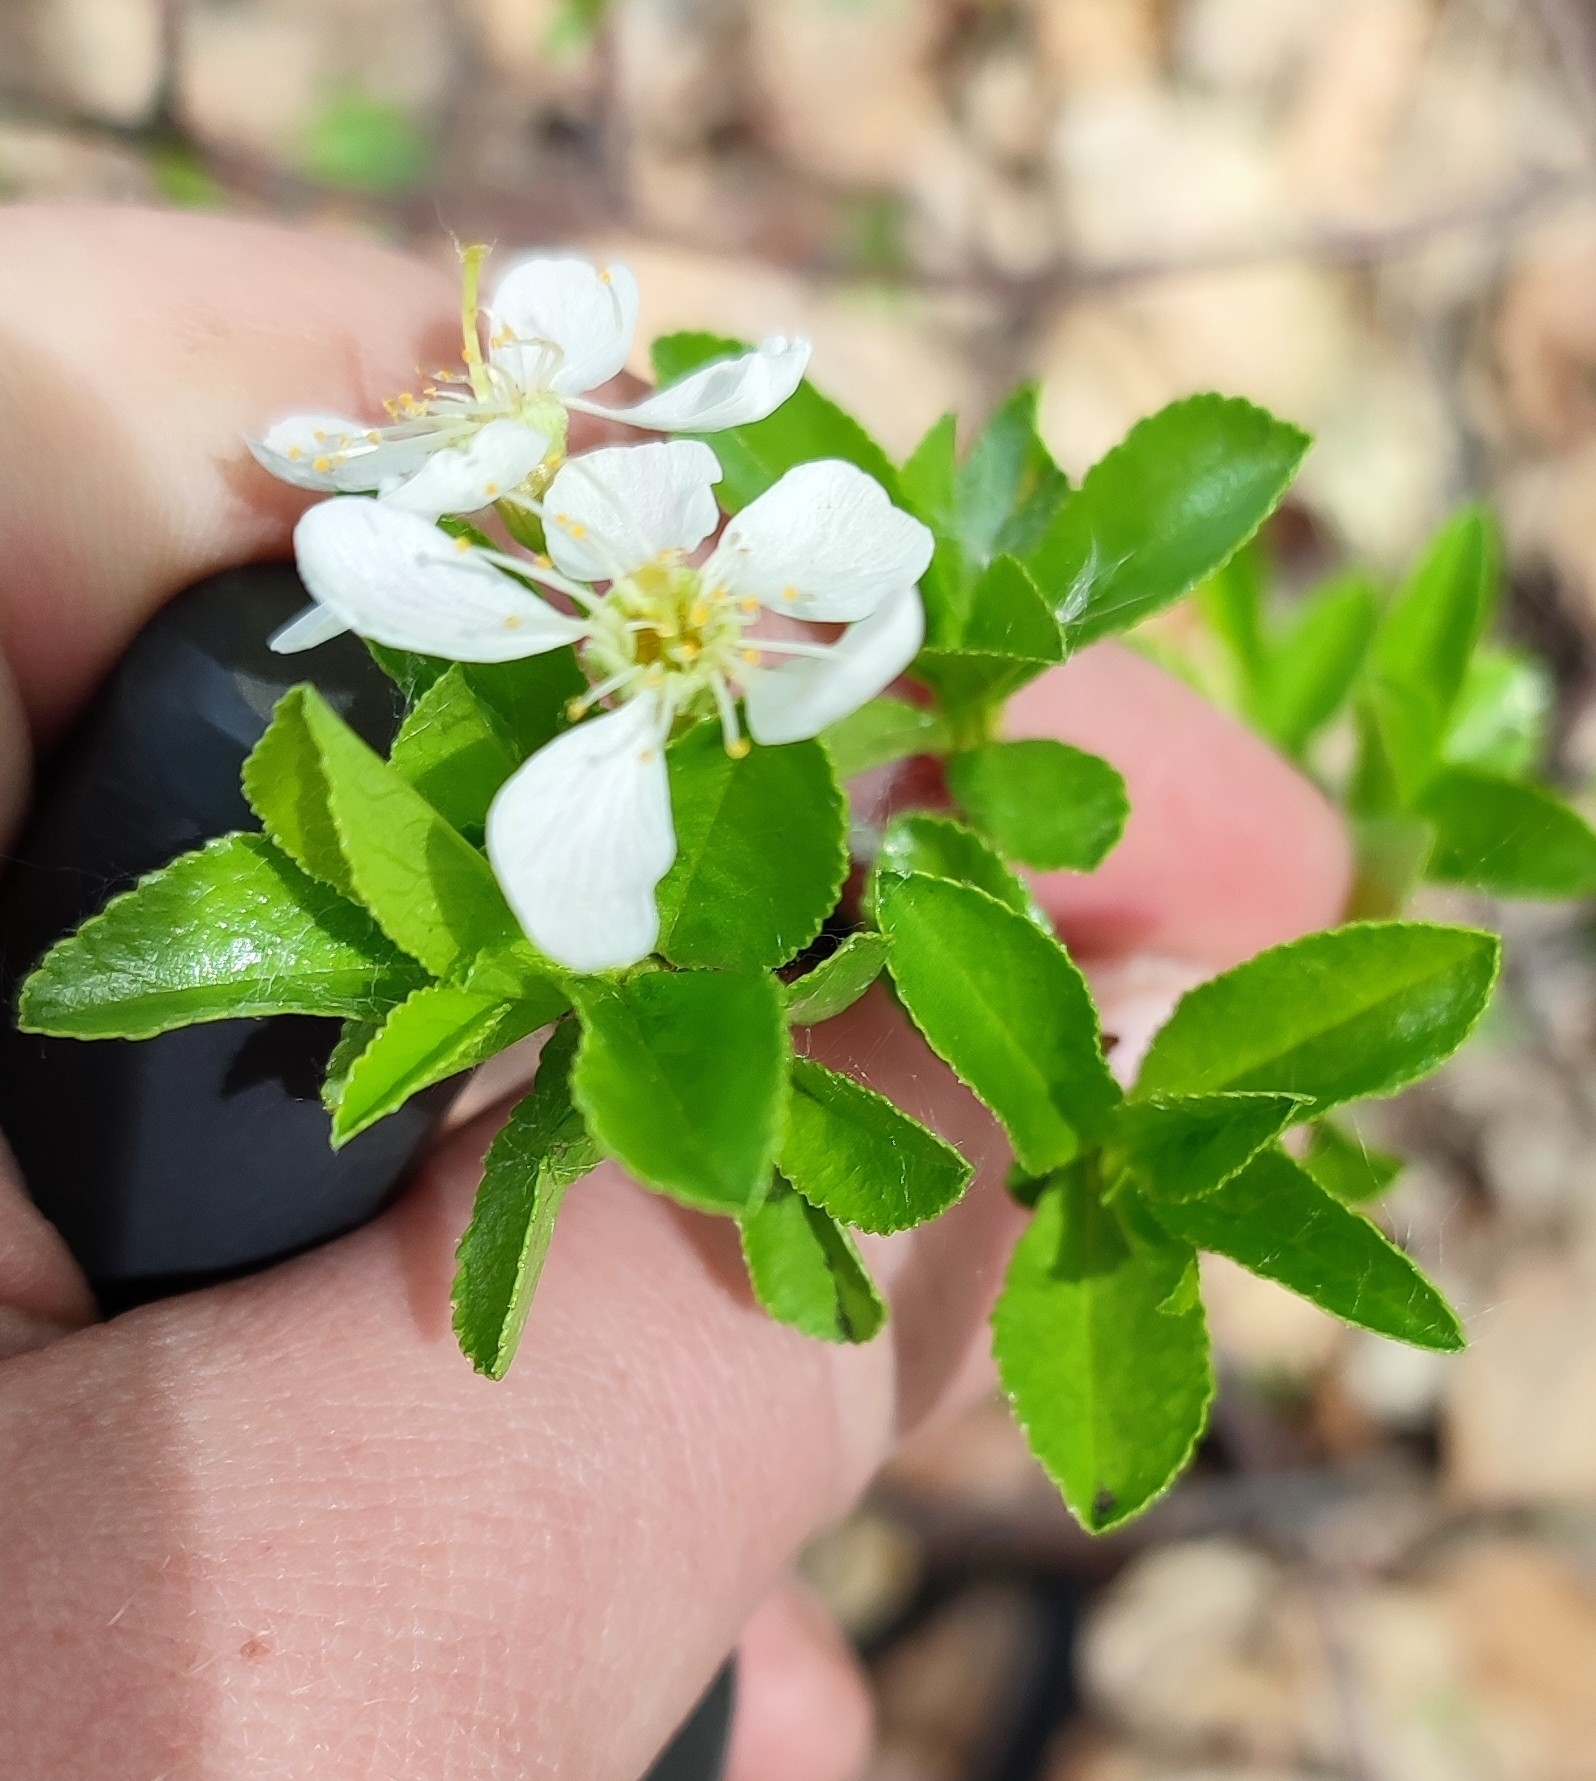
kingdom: Plantae
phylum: Tracheophyta
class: Magnoliopsida
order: Rosales
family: Rosaceae
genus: Prunus
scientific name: Prunus fruticosa
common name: European dwarf cherry
